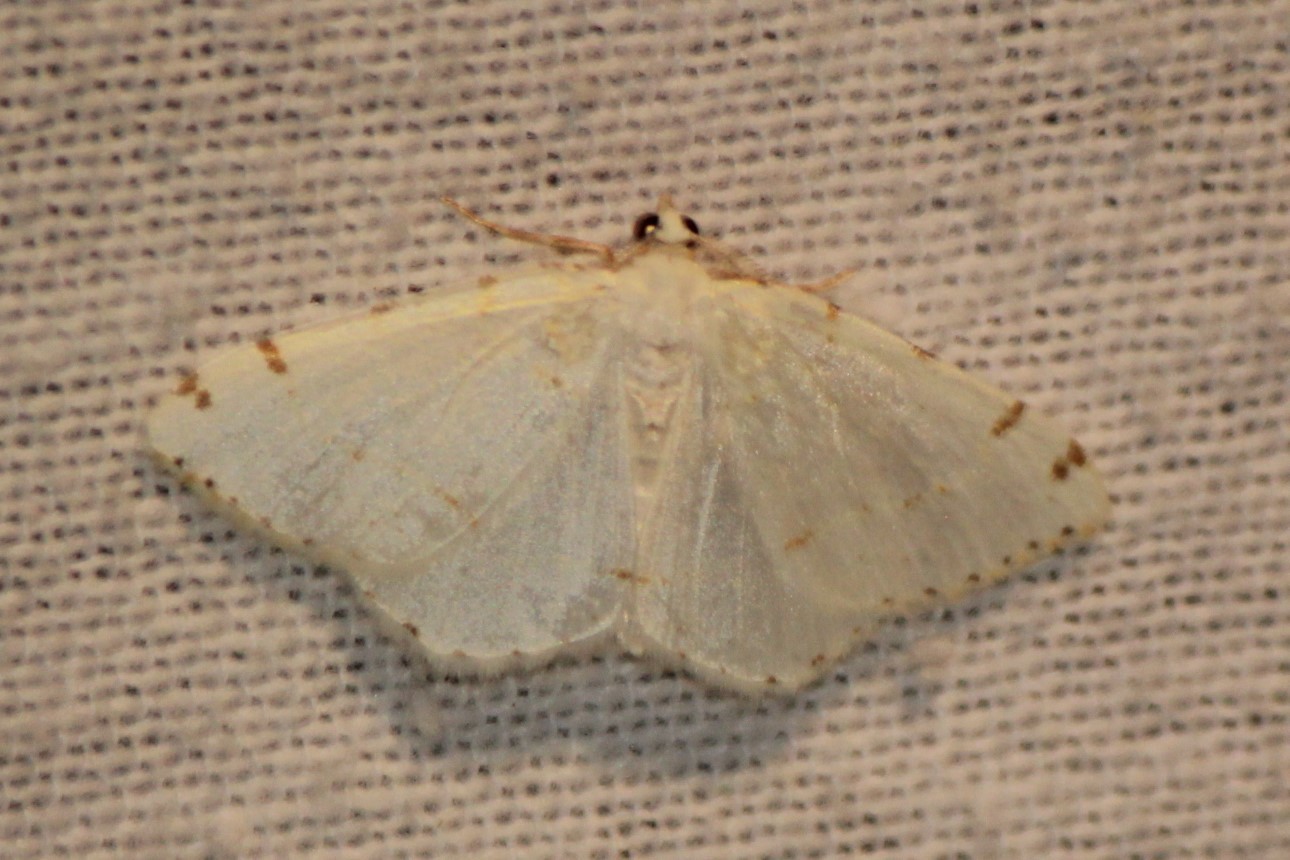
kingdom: Animalia
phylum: Arthropoda
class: Insecta
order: Lepidoptera
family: Geometridae
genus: Macaria
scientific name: Macaria pustularia
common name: Lesser maple spanworm moth
